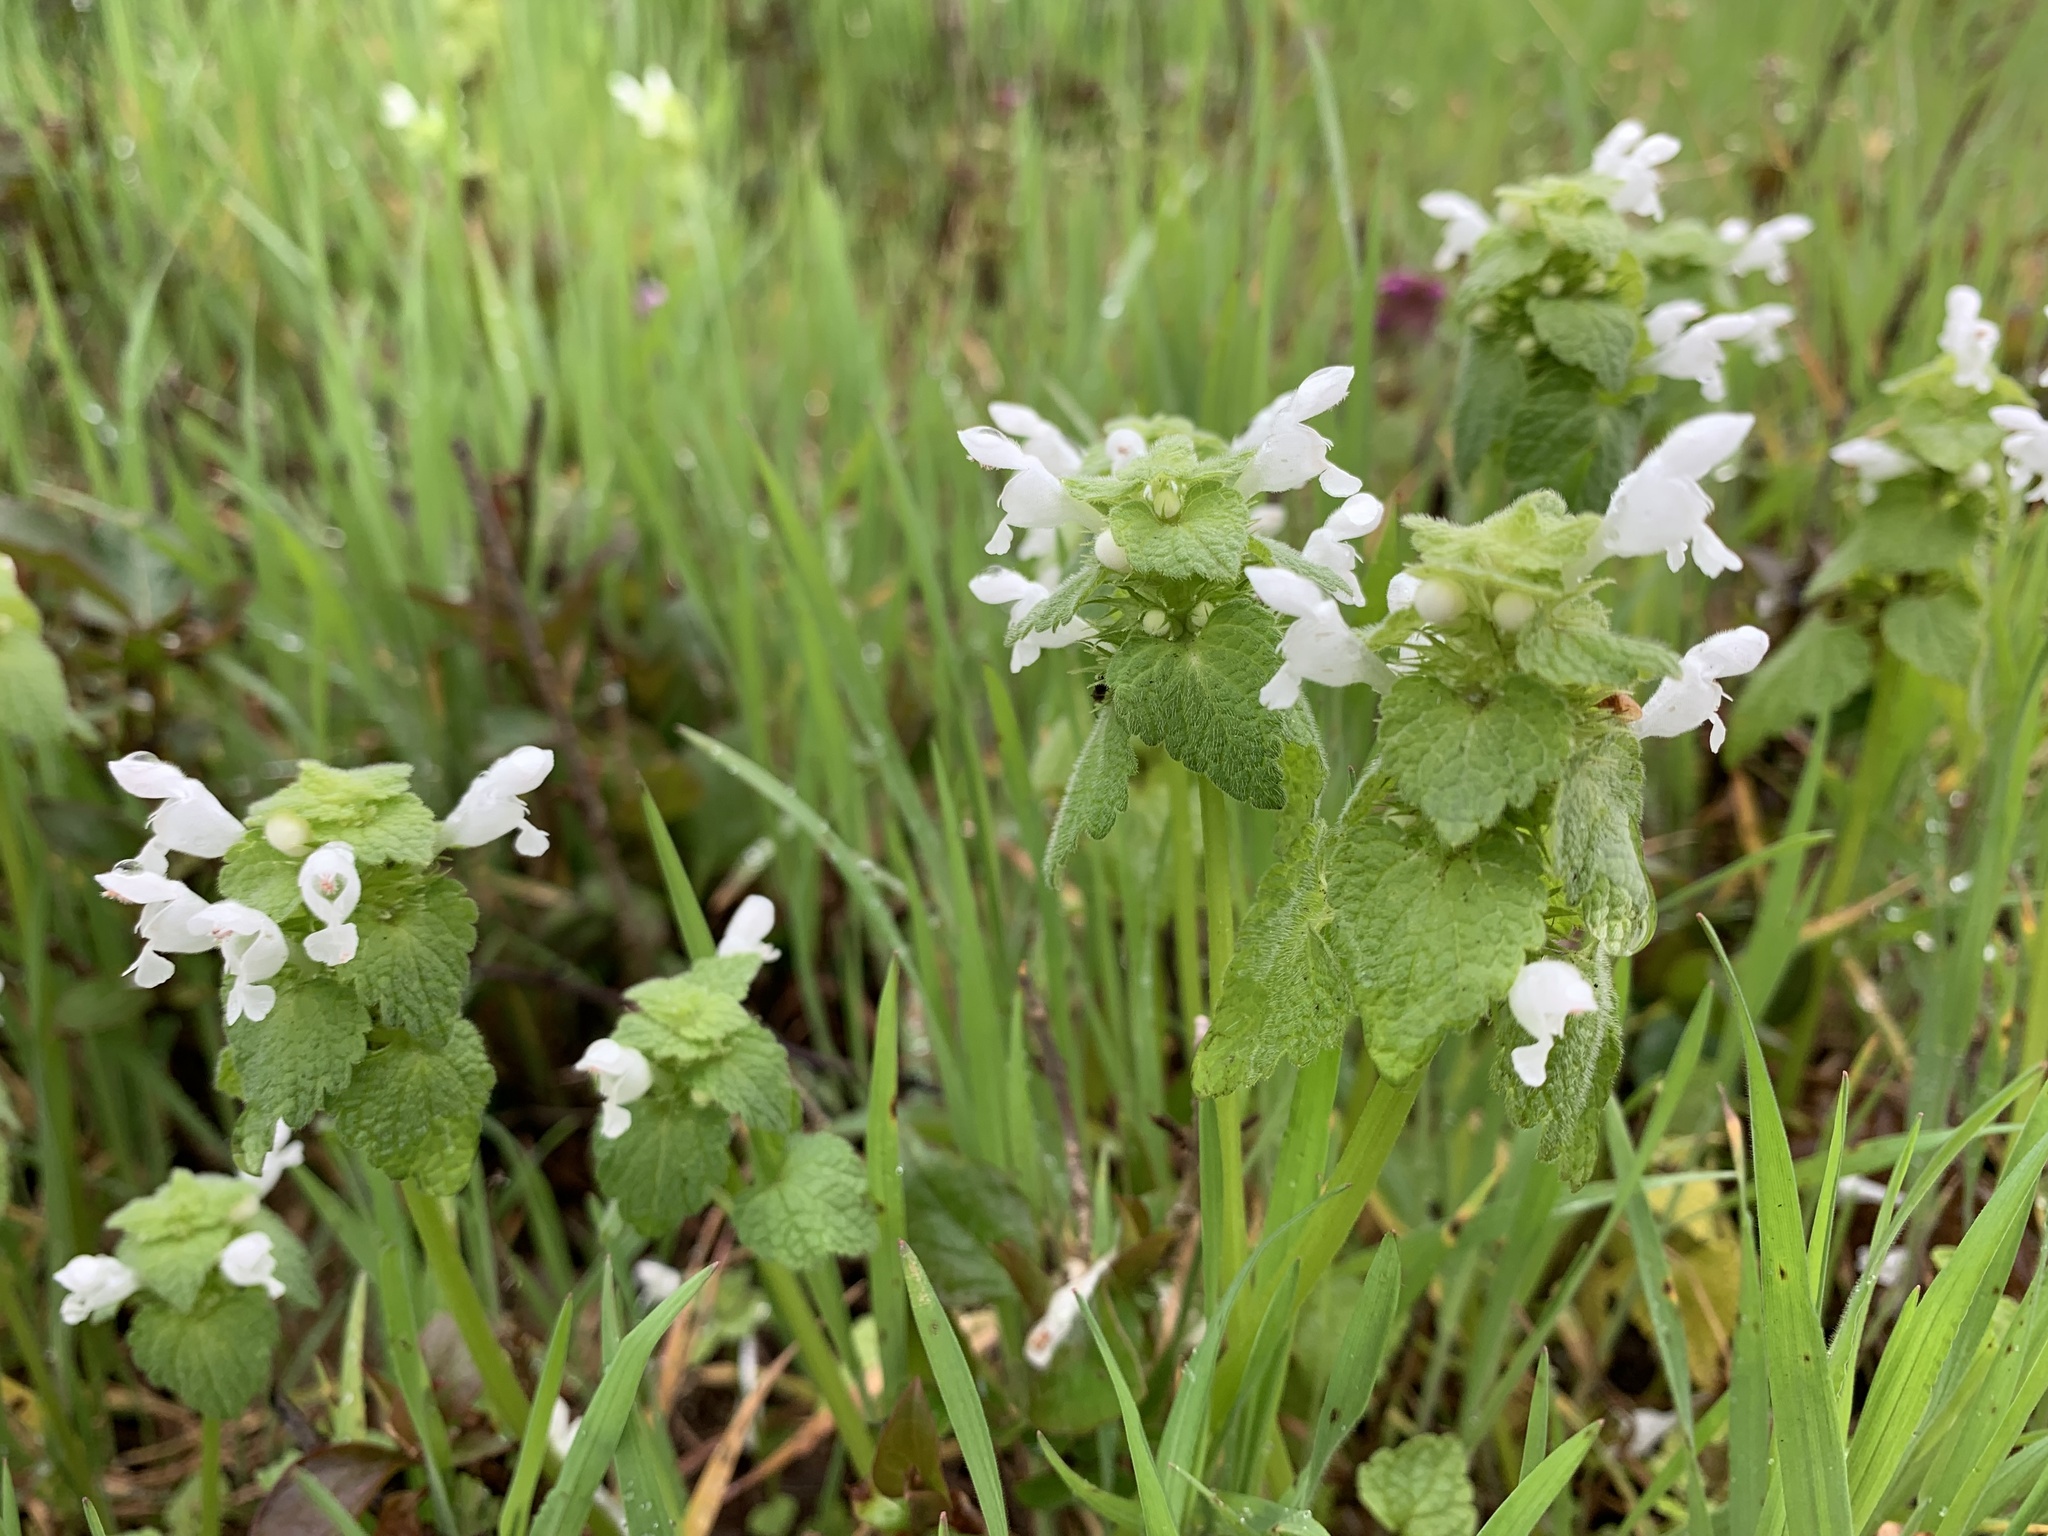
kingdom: Plantae
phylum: Tracheophyta
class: Magnoliopsida
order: Lamiales
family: Lamiaceae
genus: Lamium
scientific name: Lamium purpureum
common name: Red dead-nettle
